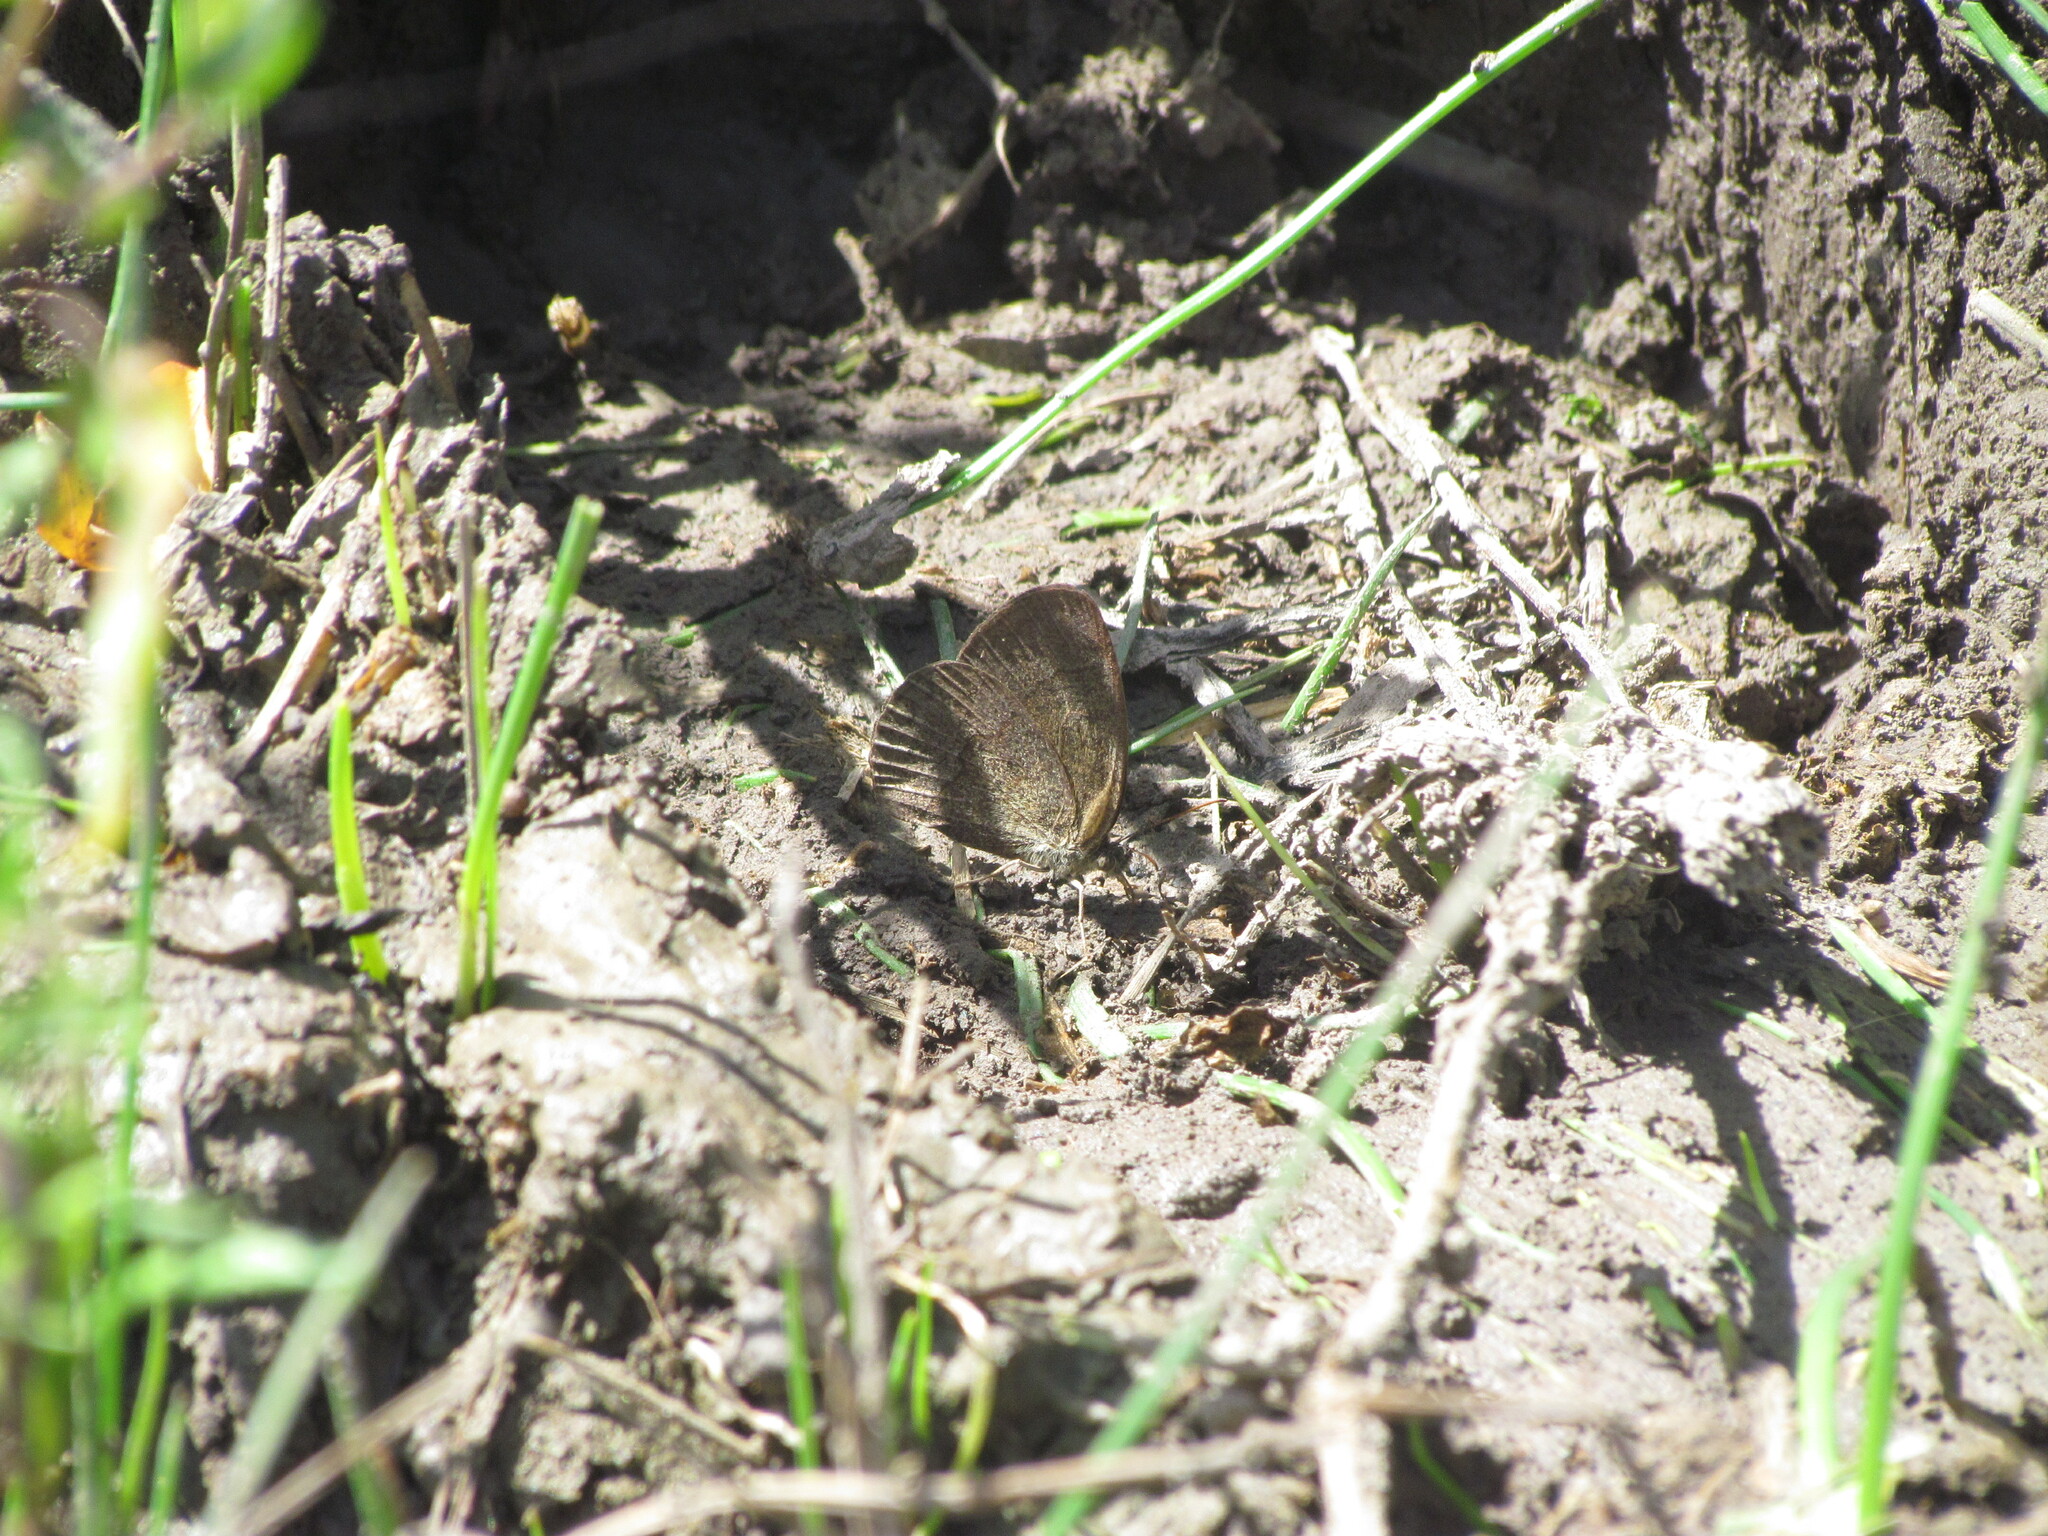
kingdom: Animalia
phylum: Arthropoda
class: Insecta
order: Lepidoptera
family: Nymphalidae
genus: Yphthimoides
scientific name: Yphthimoides celmis
